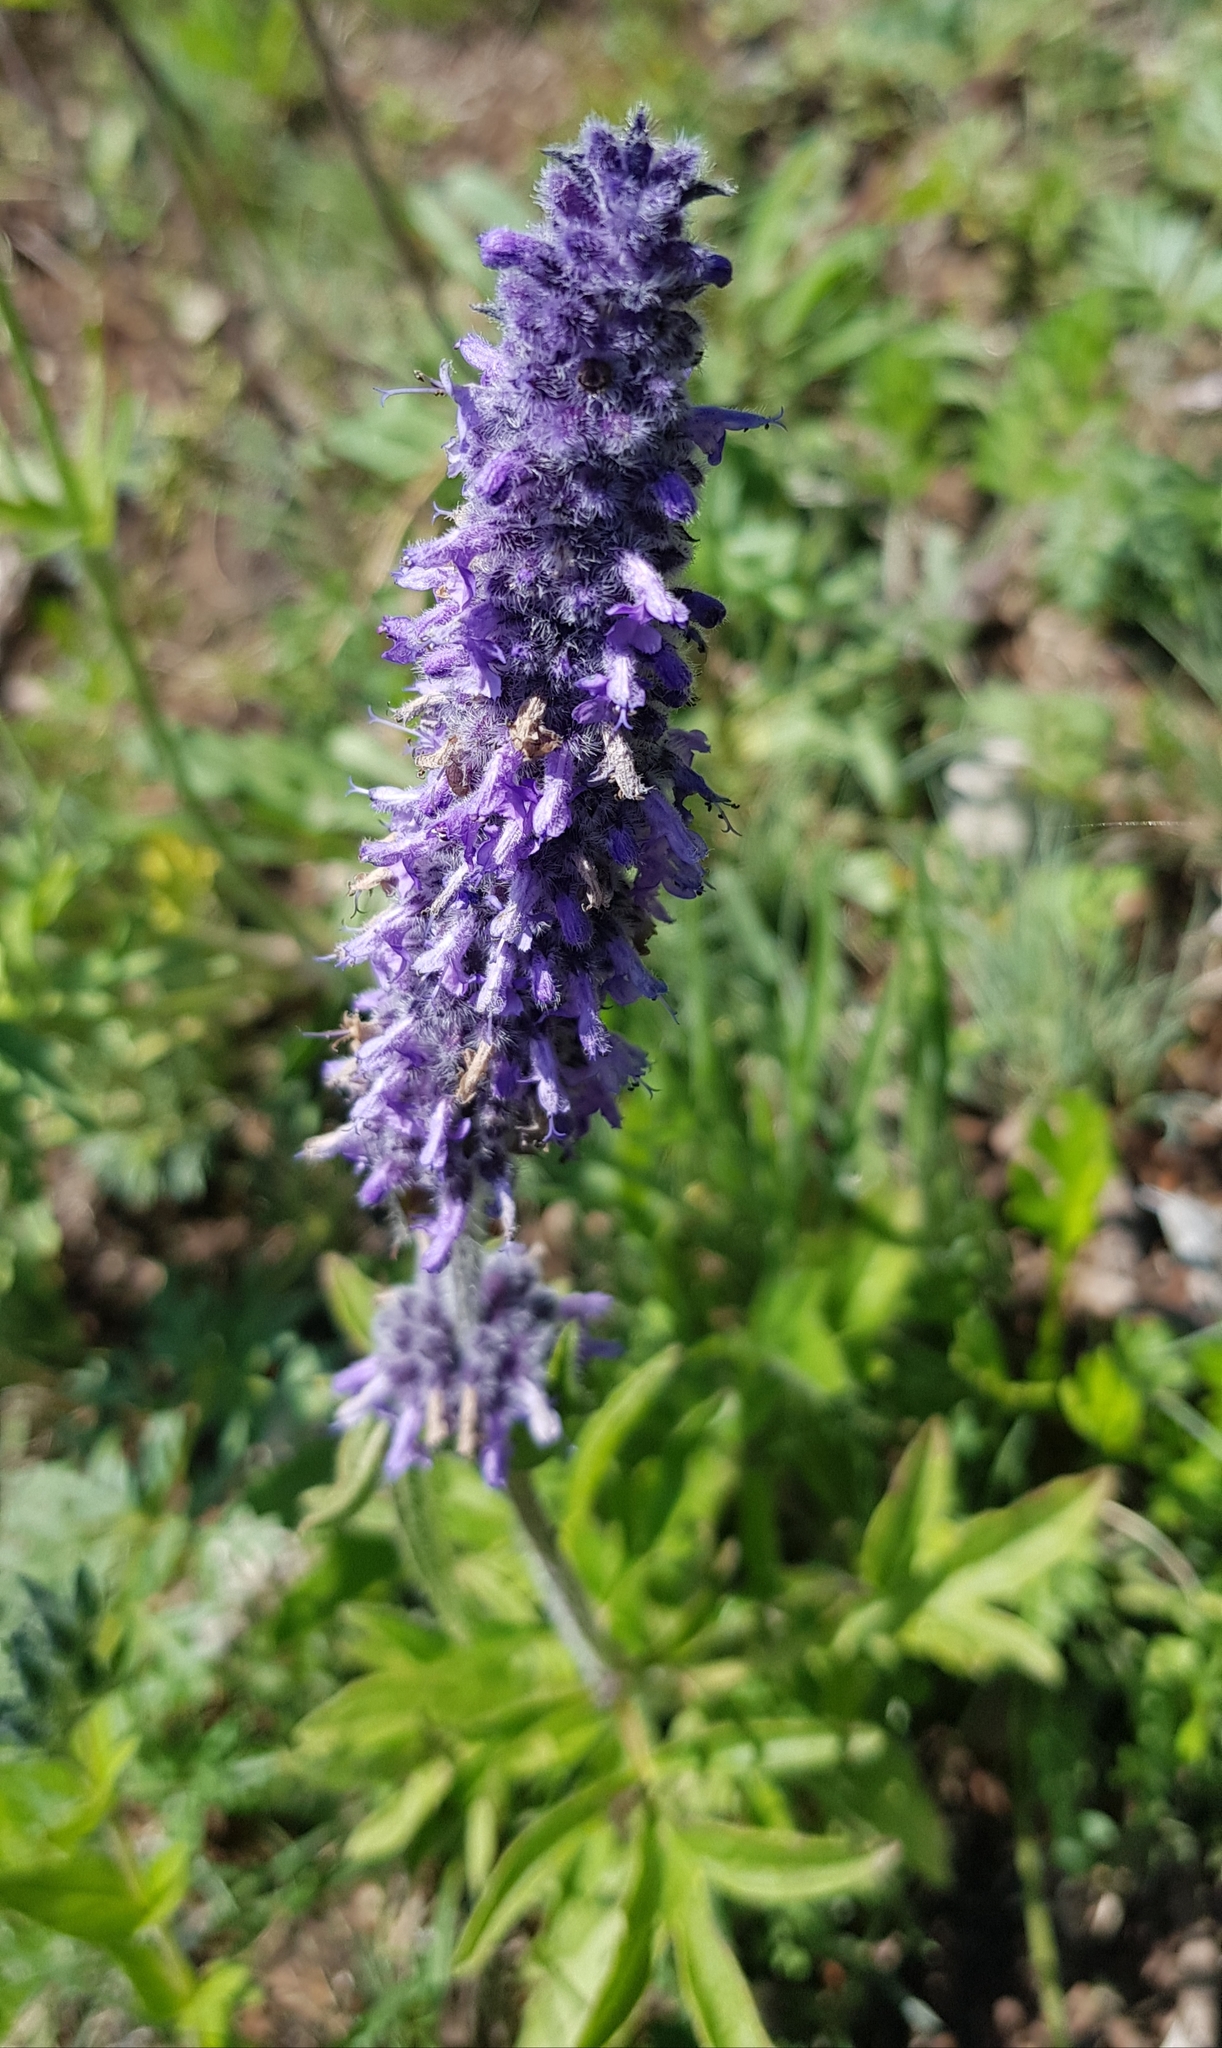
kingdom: Plantae
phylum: Tracheophyta
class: Magnoliopsida
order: Lamiales
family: Lamiaceae
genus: Nepeta
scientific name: Nepeta multifida
